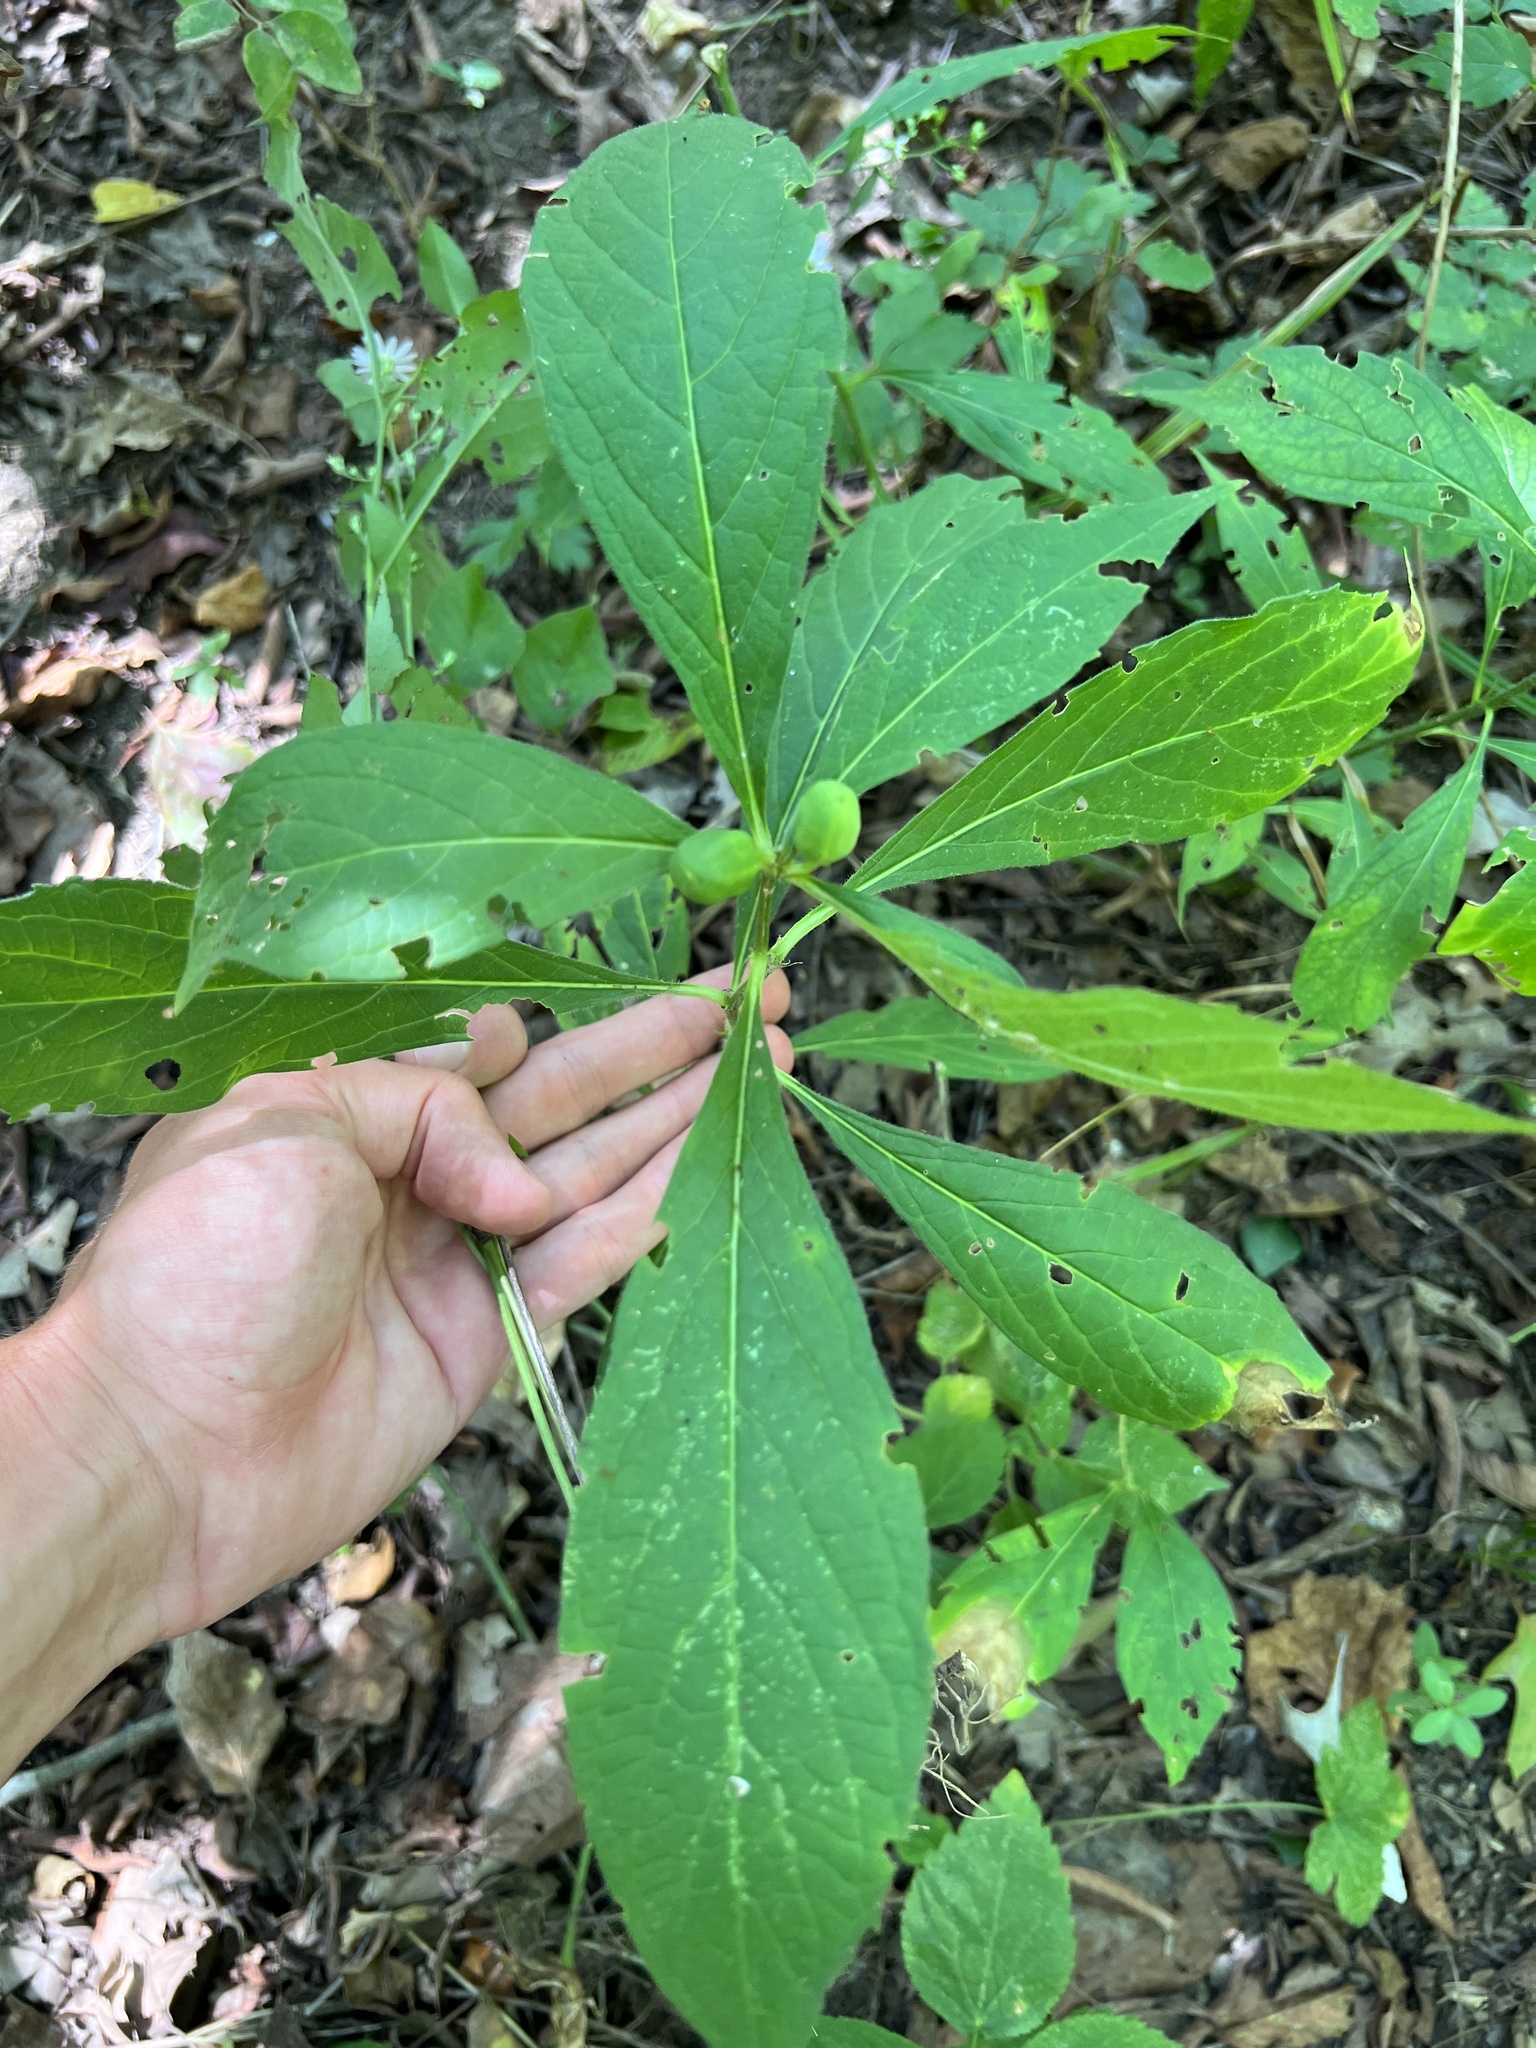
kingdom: Plantae
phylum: Tracheophyta
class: Magnoliopsida
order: Malpighiales
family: Violaceae
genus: Cubelium
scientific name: Cubelium concolor
